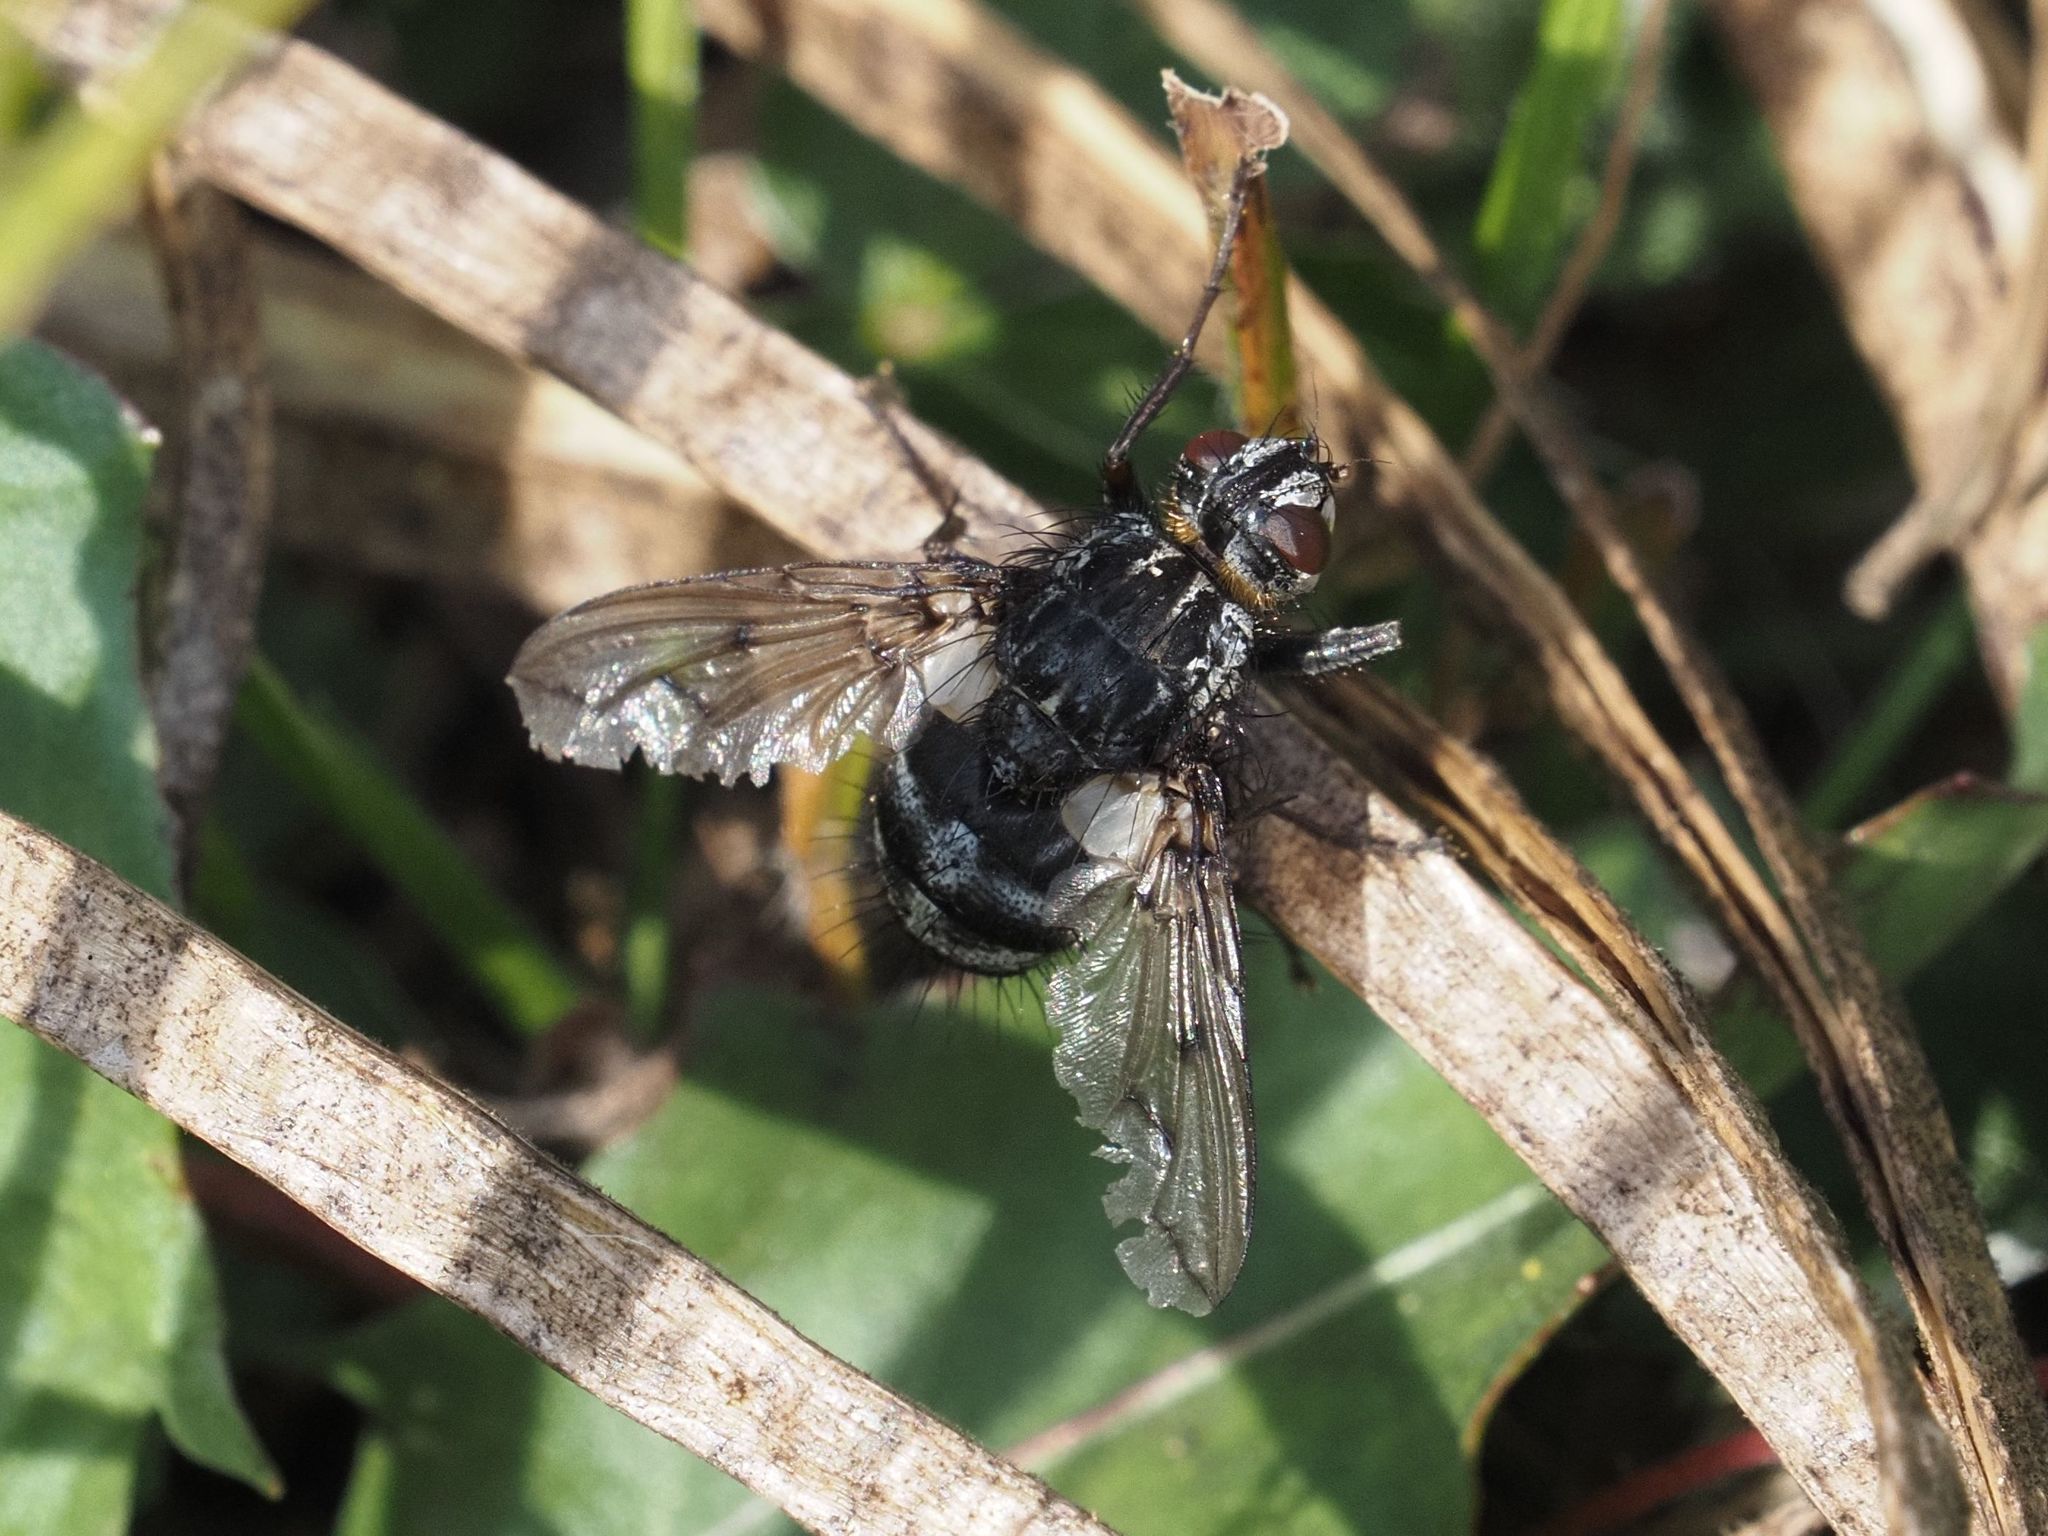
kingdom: Animalia
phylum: Arthropoda
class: Insecta
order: Diptera
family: Tachinidae
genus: Trixa
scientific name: Trixa conspersa
